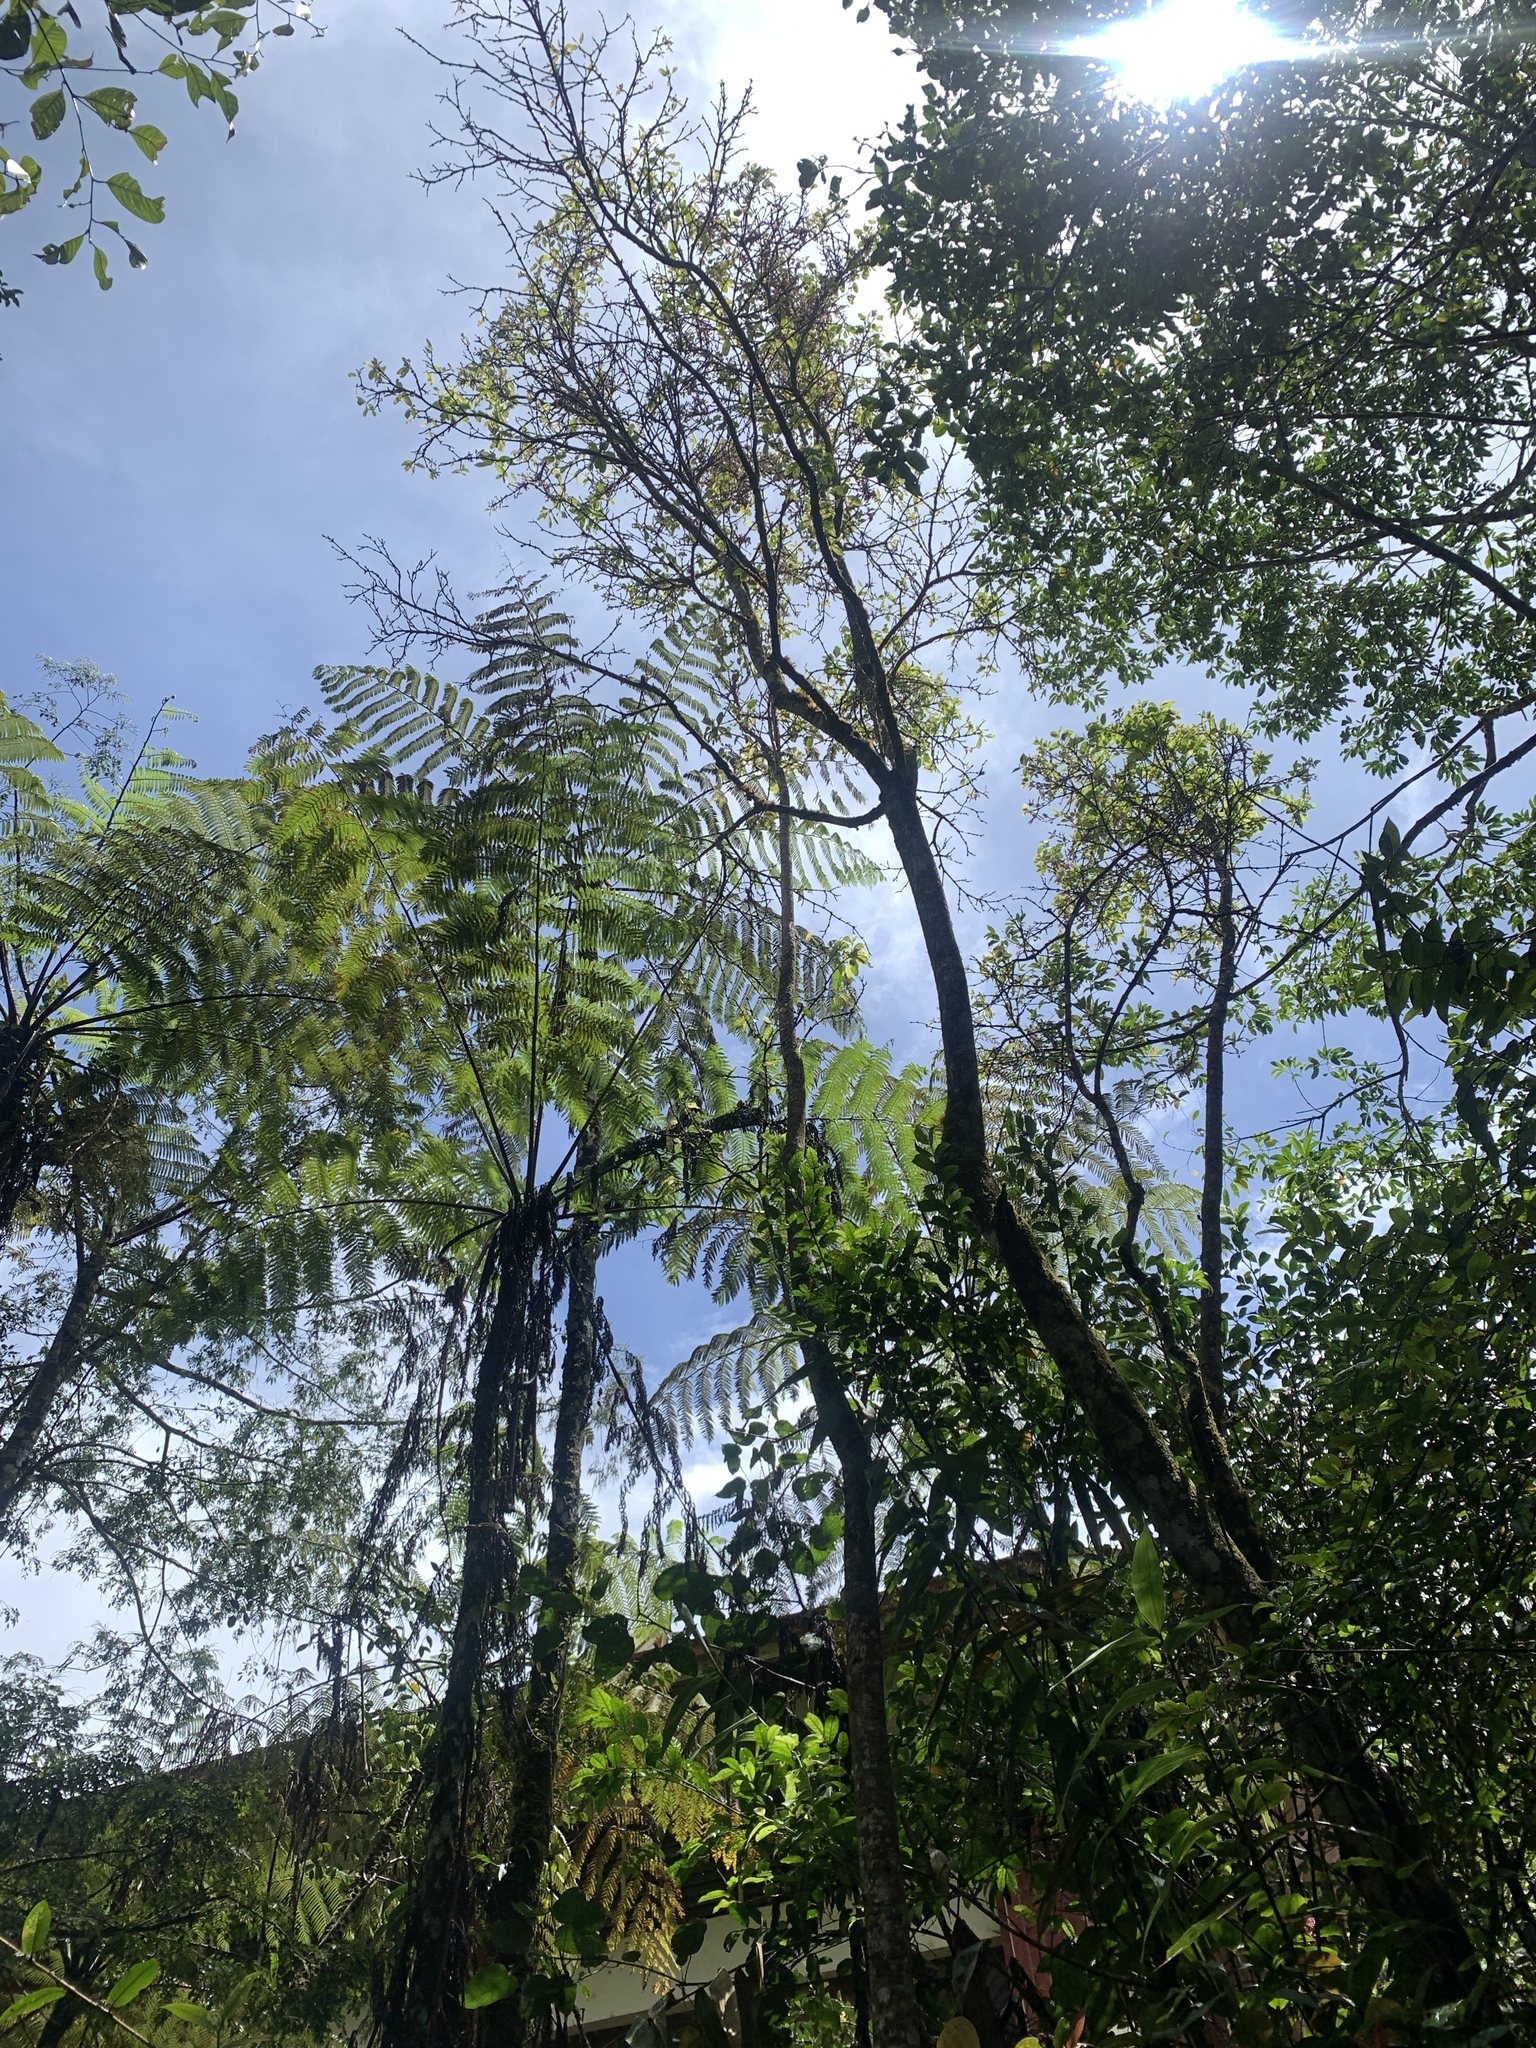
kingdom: Animalia
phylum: Chordata
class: Aves
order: Passeriformes
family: Nectariniidae
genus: Arachnothera
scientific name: Arachnothera juliae
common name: Whitehead's spiderhunter
